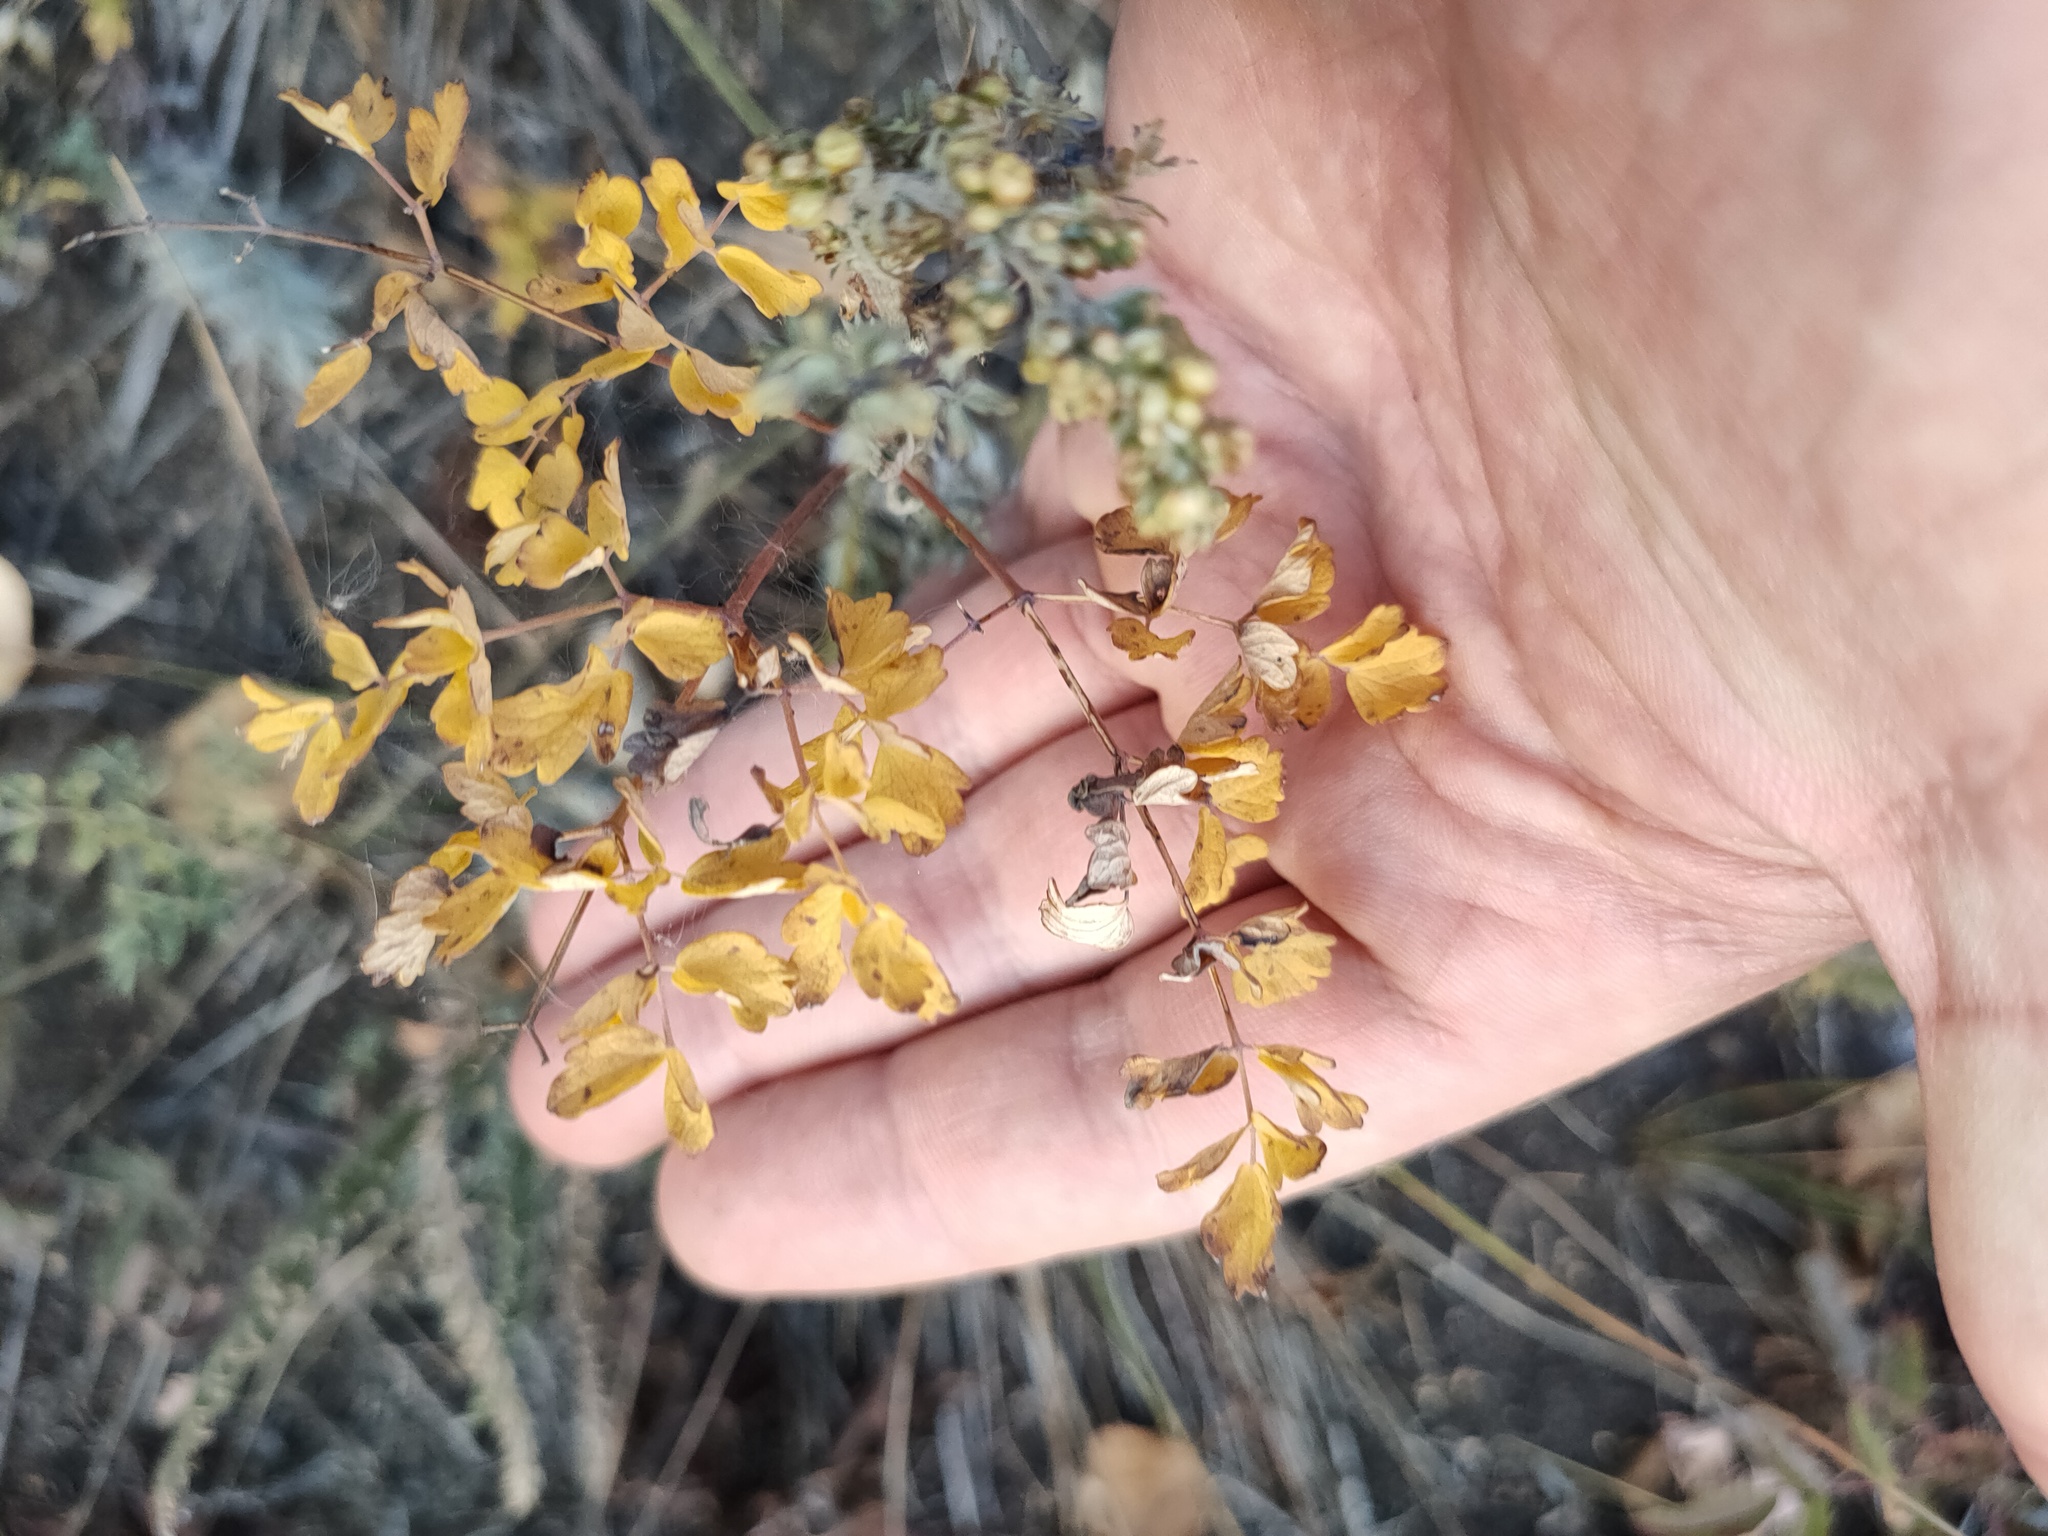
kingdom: Plantae
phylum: Tracheophyta
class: Magnoliopsida
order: Ranunculales
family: Ranunculaceae
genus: Thalictrum
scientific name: Thalictrum minus
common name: Lesser meadow-rue
